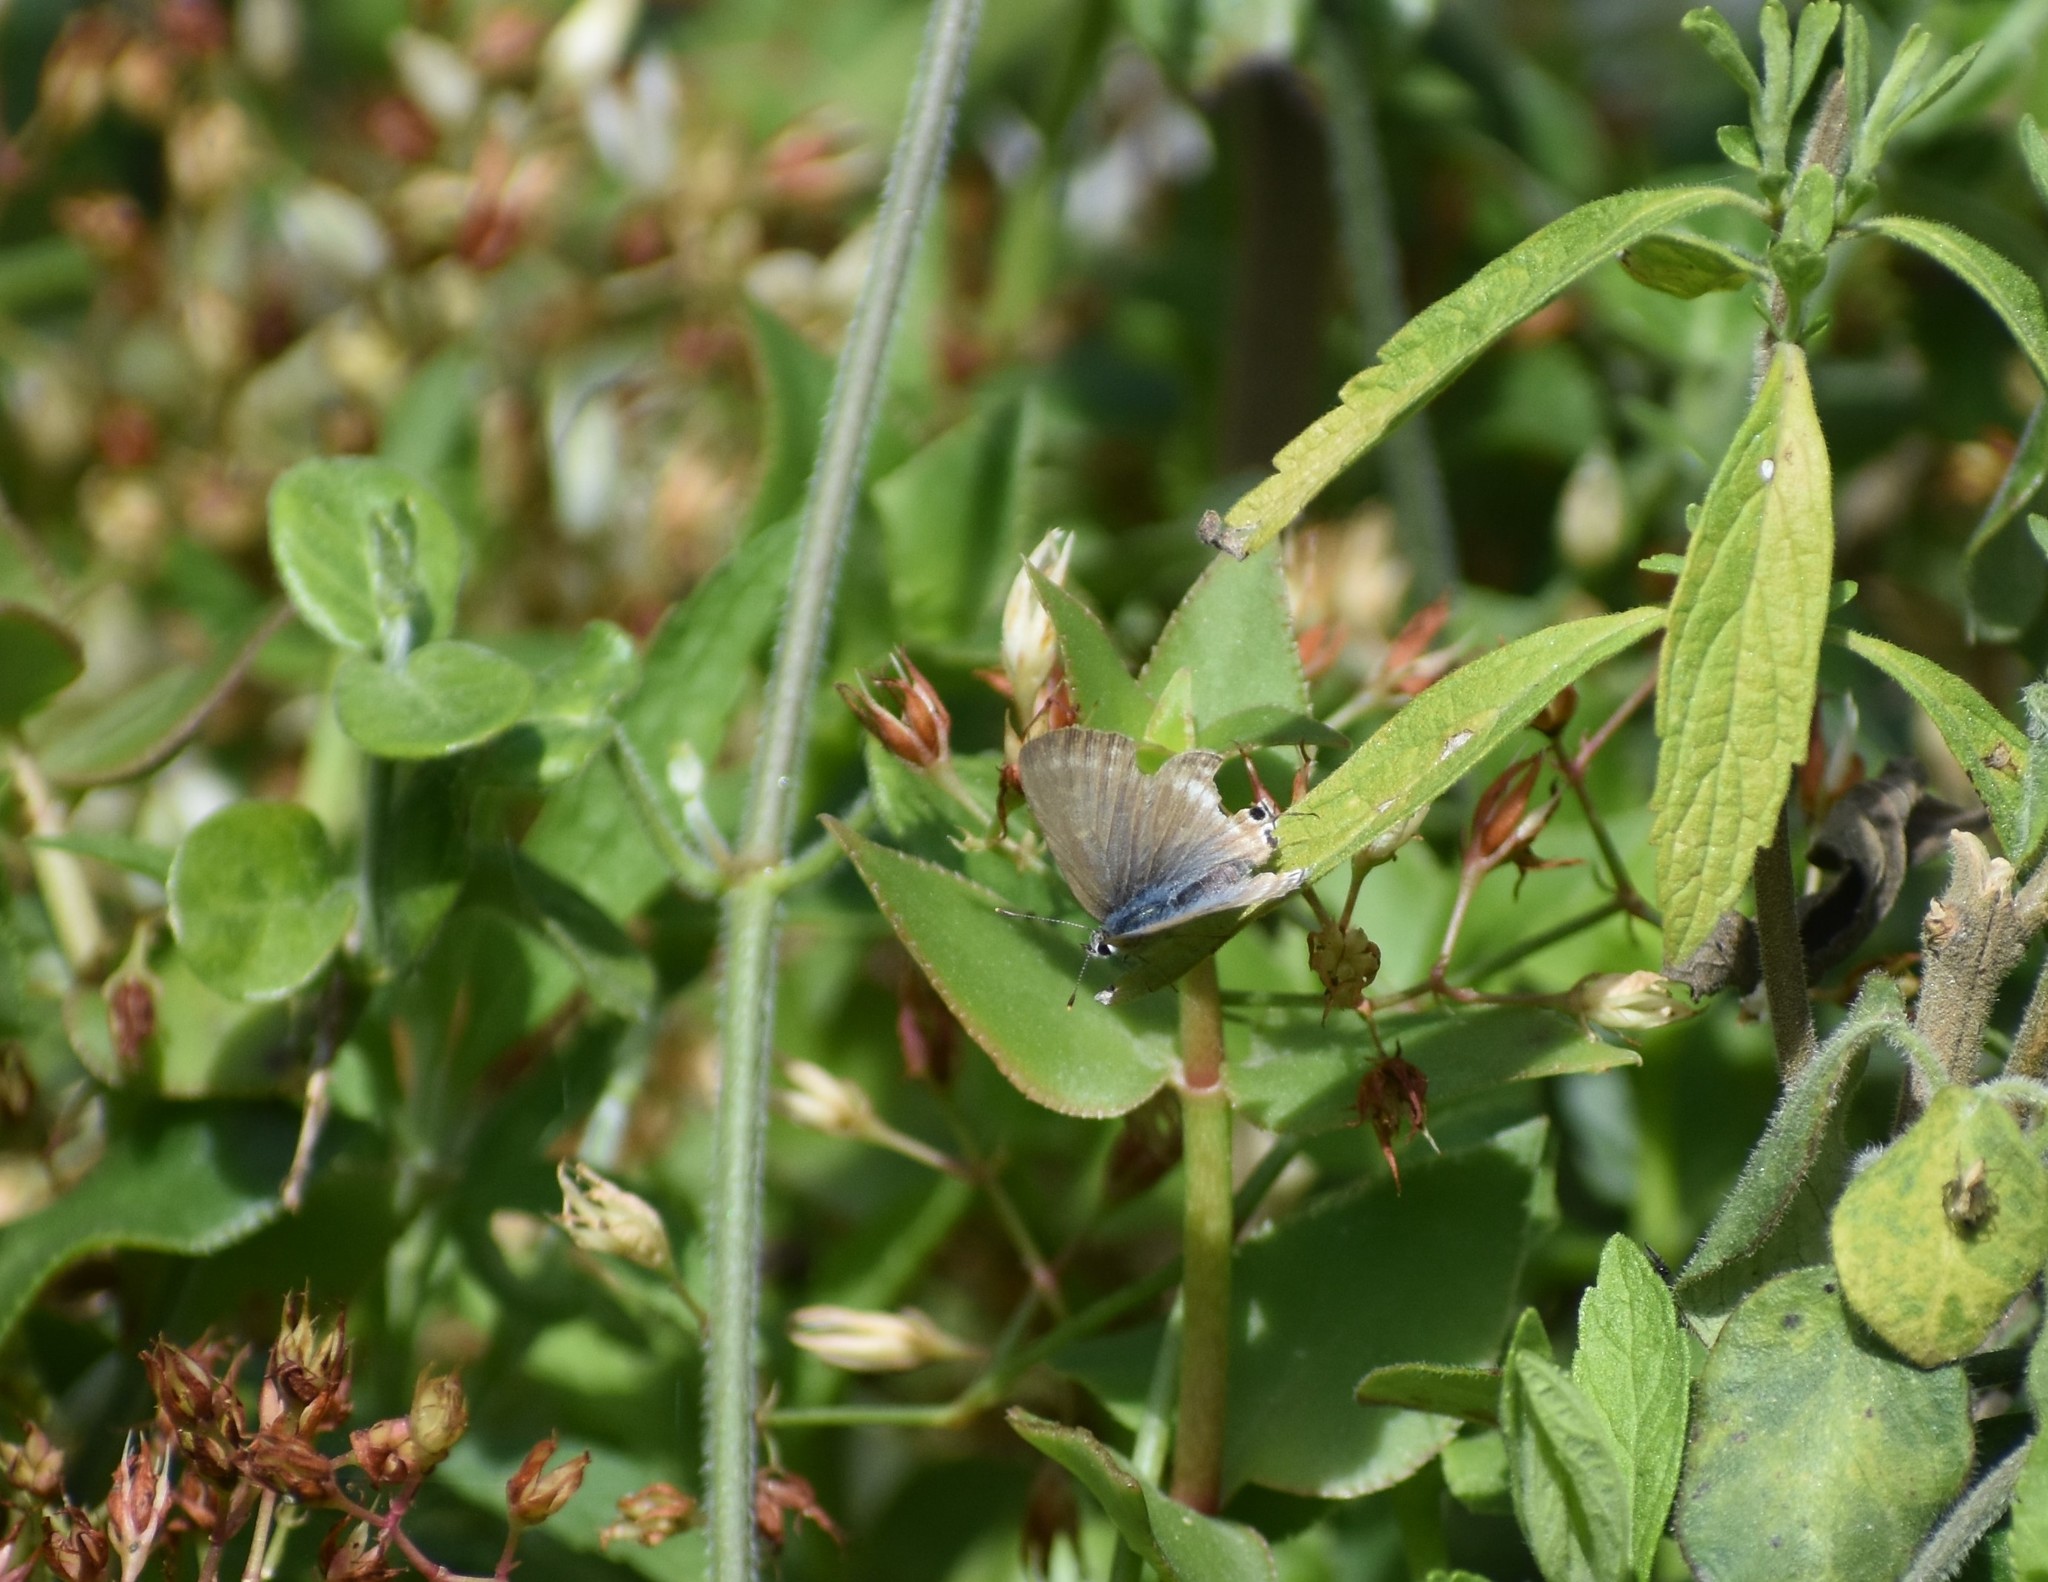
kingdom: Animalia
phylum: Arthropoda
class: Insecta
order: Lepidoptera
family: Lycaenidae
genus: Lampides
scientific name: Lampides boeticus
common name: Long-tailed blue
